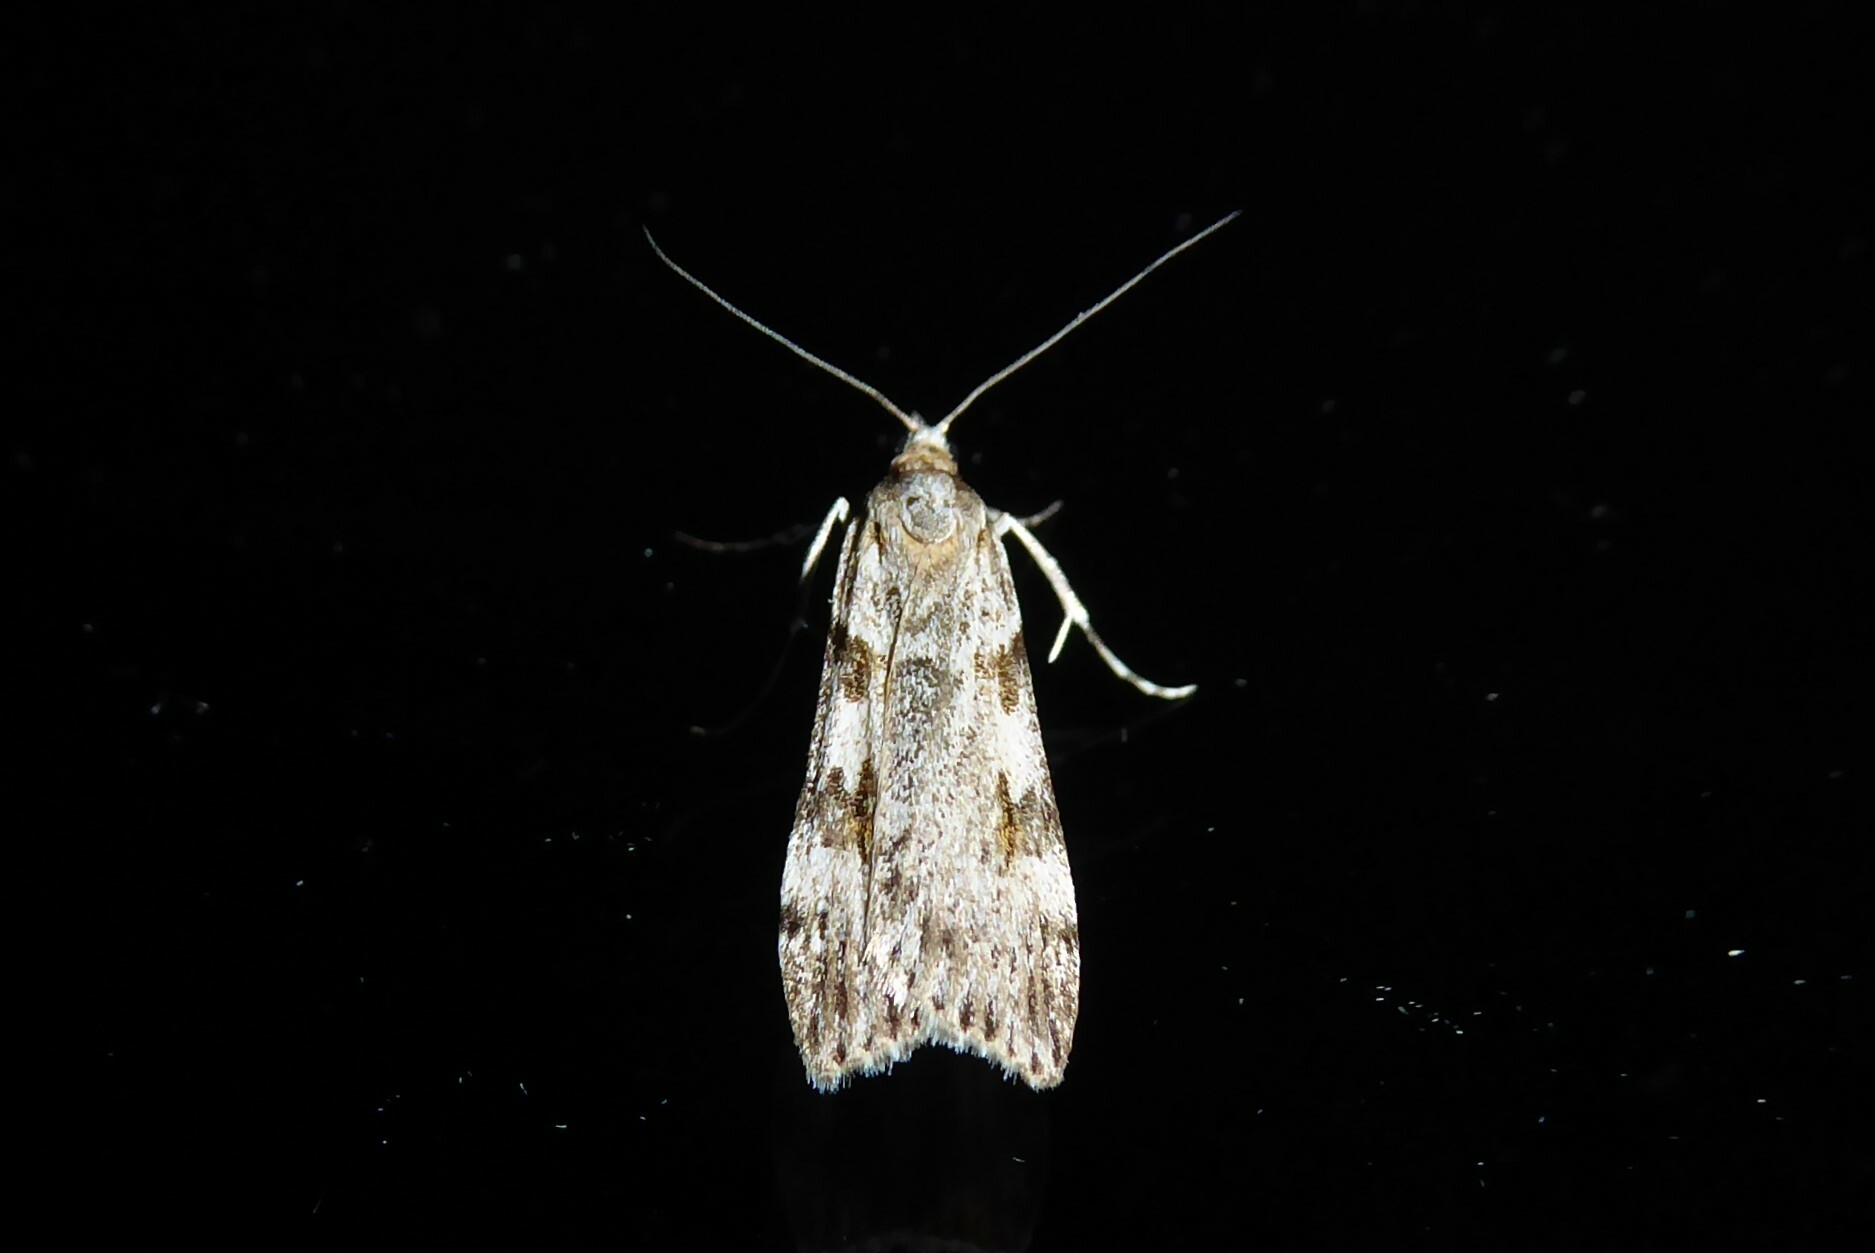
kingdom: Animalia
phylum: Arthropoda
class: Insecta
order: Lepidoptera
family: Crambidae
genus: Scoparia
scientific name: Scoparia halopis
